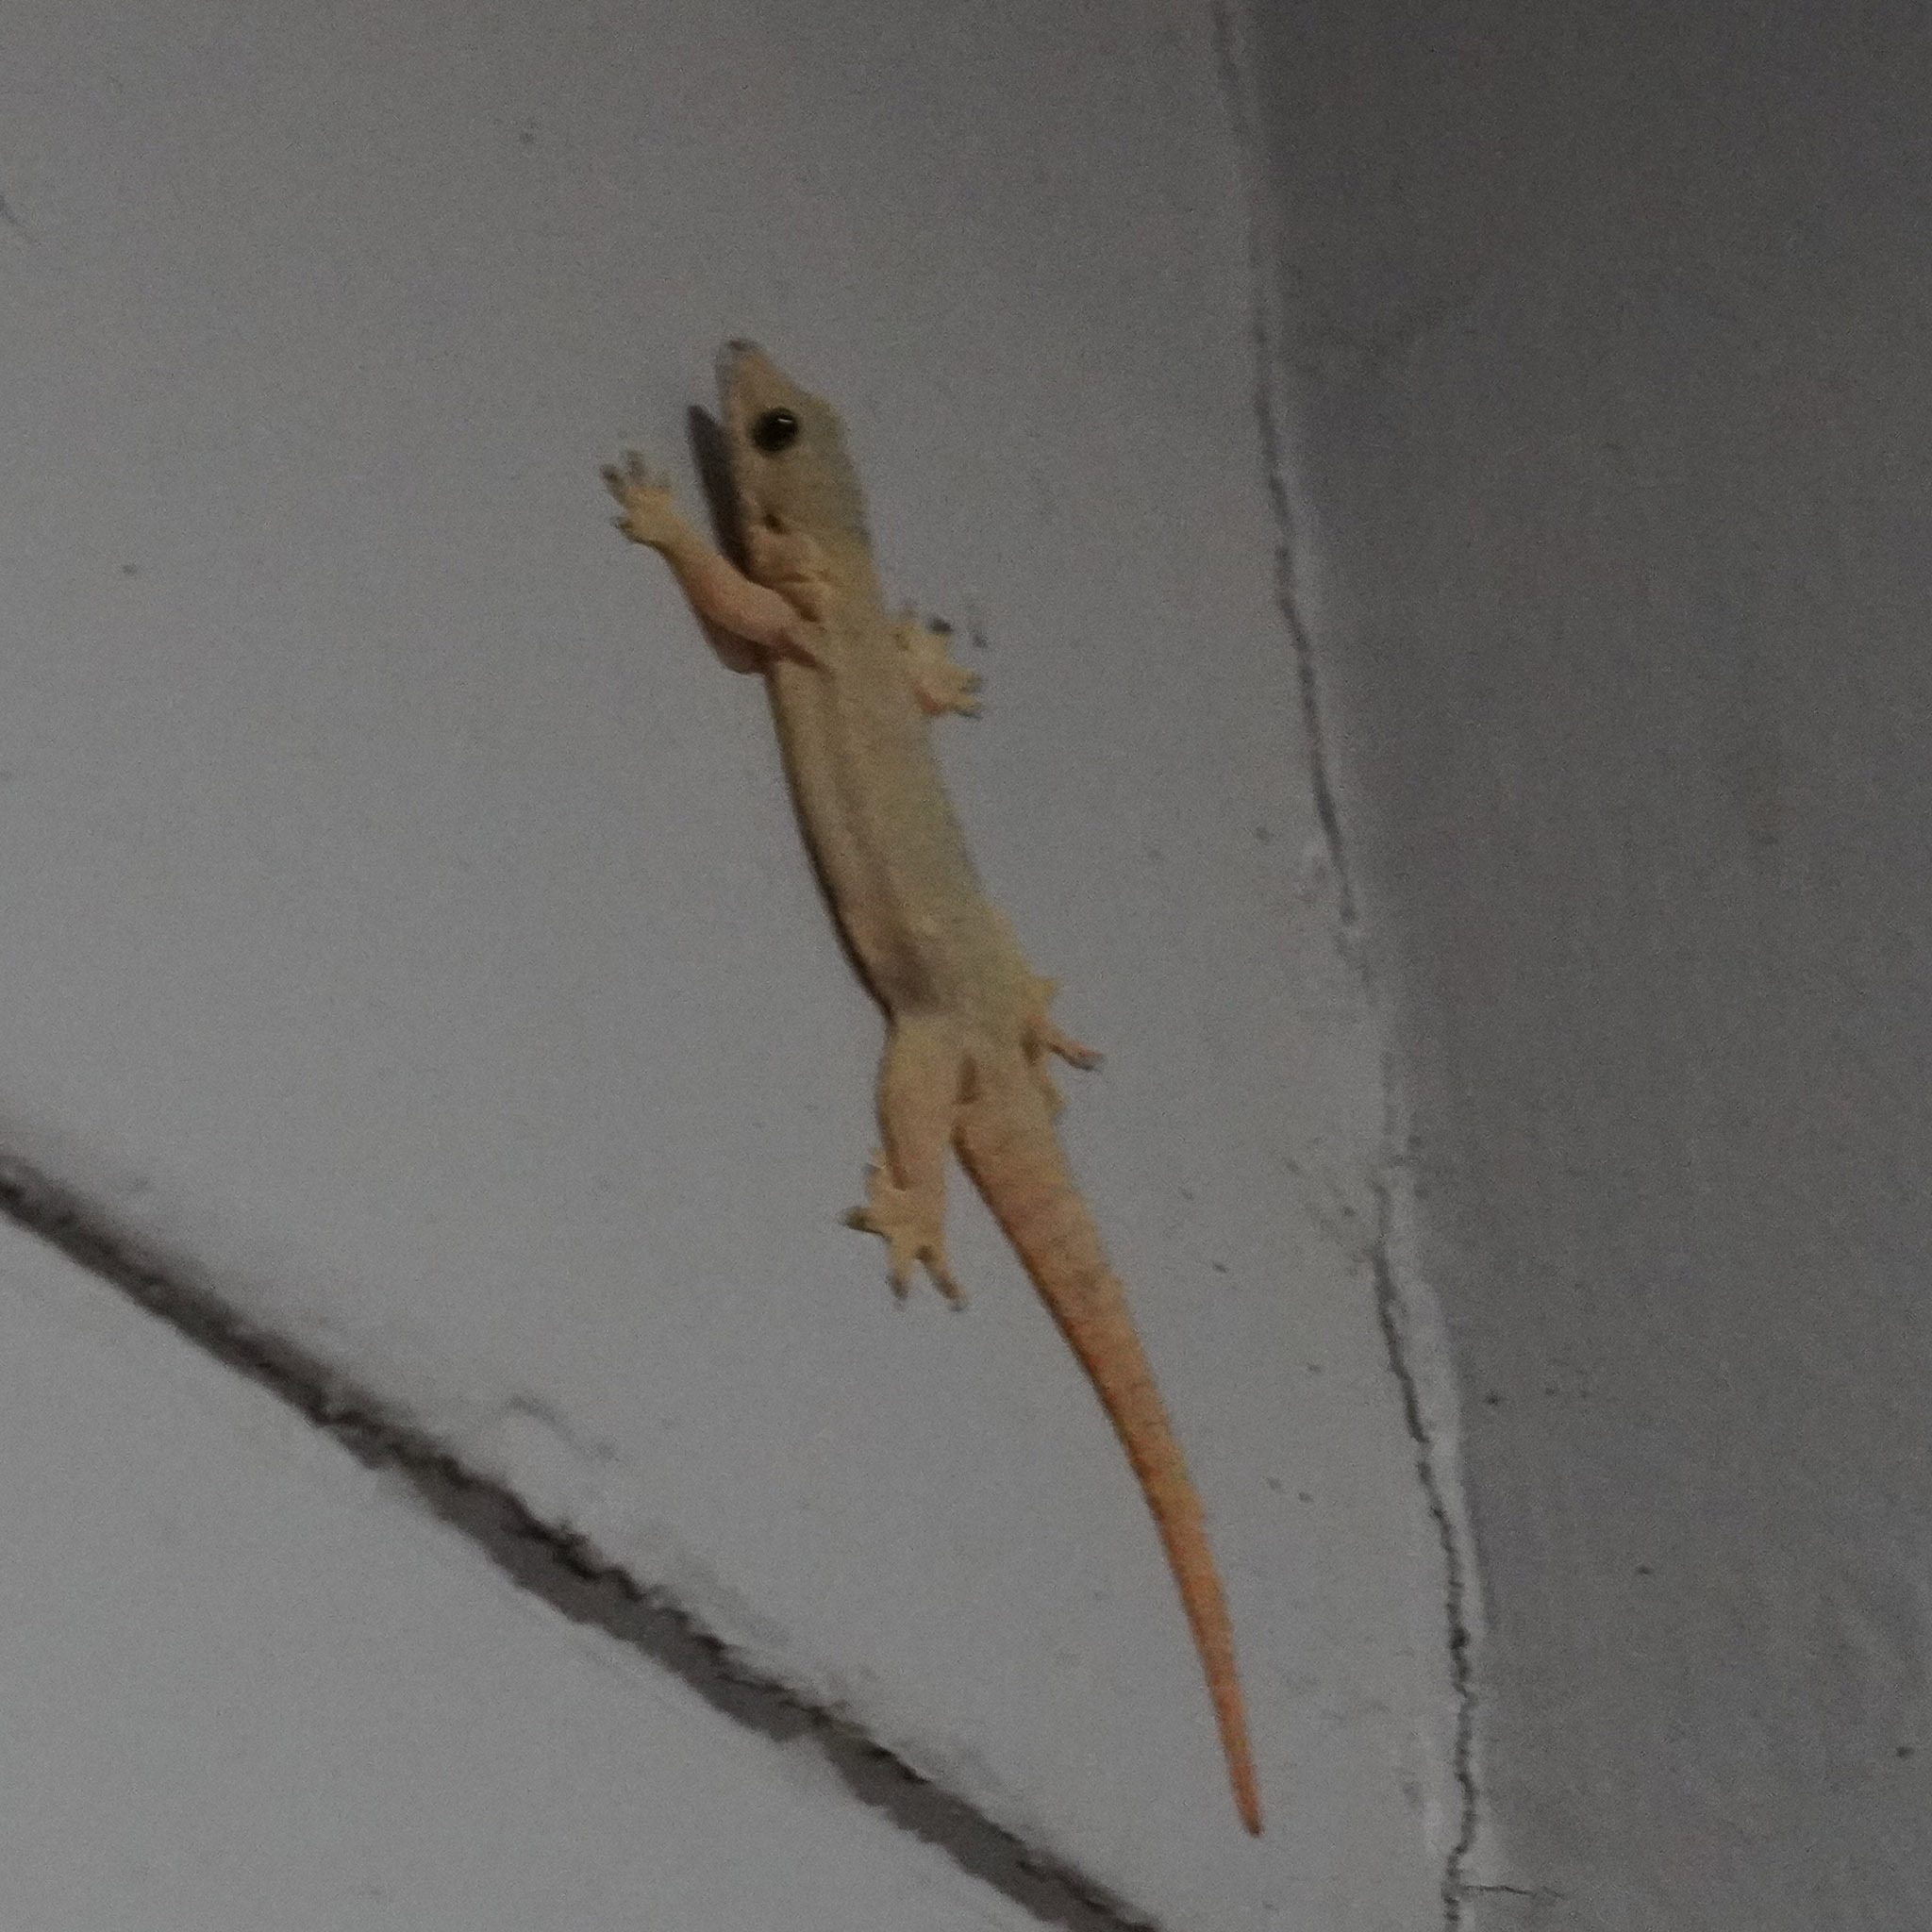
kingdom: Animalia
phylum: Chordata
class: Squamata
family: Gekkonidae
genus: Hemidactylus
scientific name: Hemidactylus platyurus
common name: Flat-tailed house gecko
